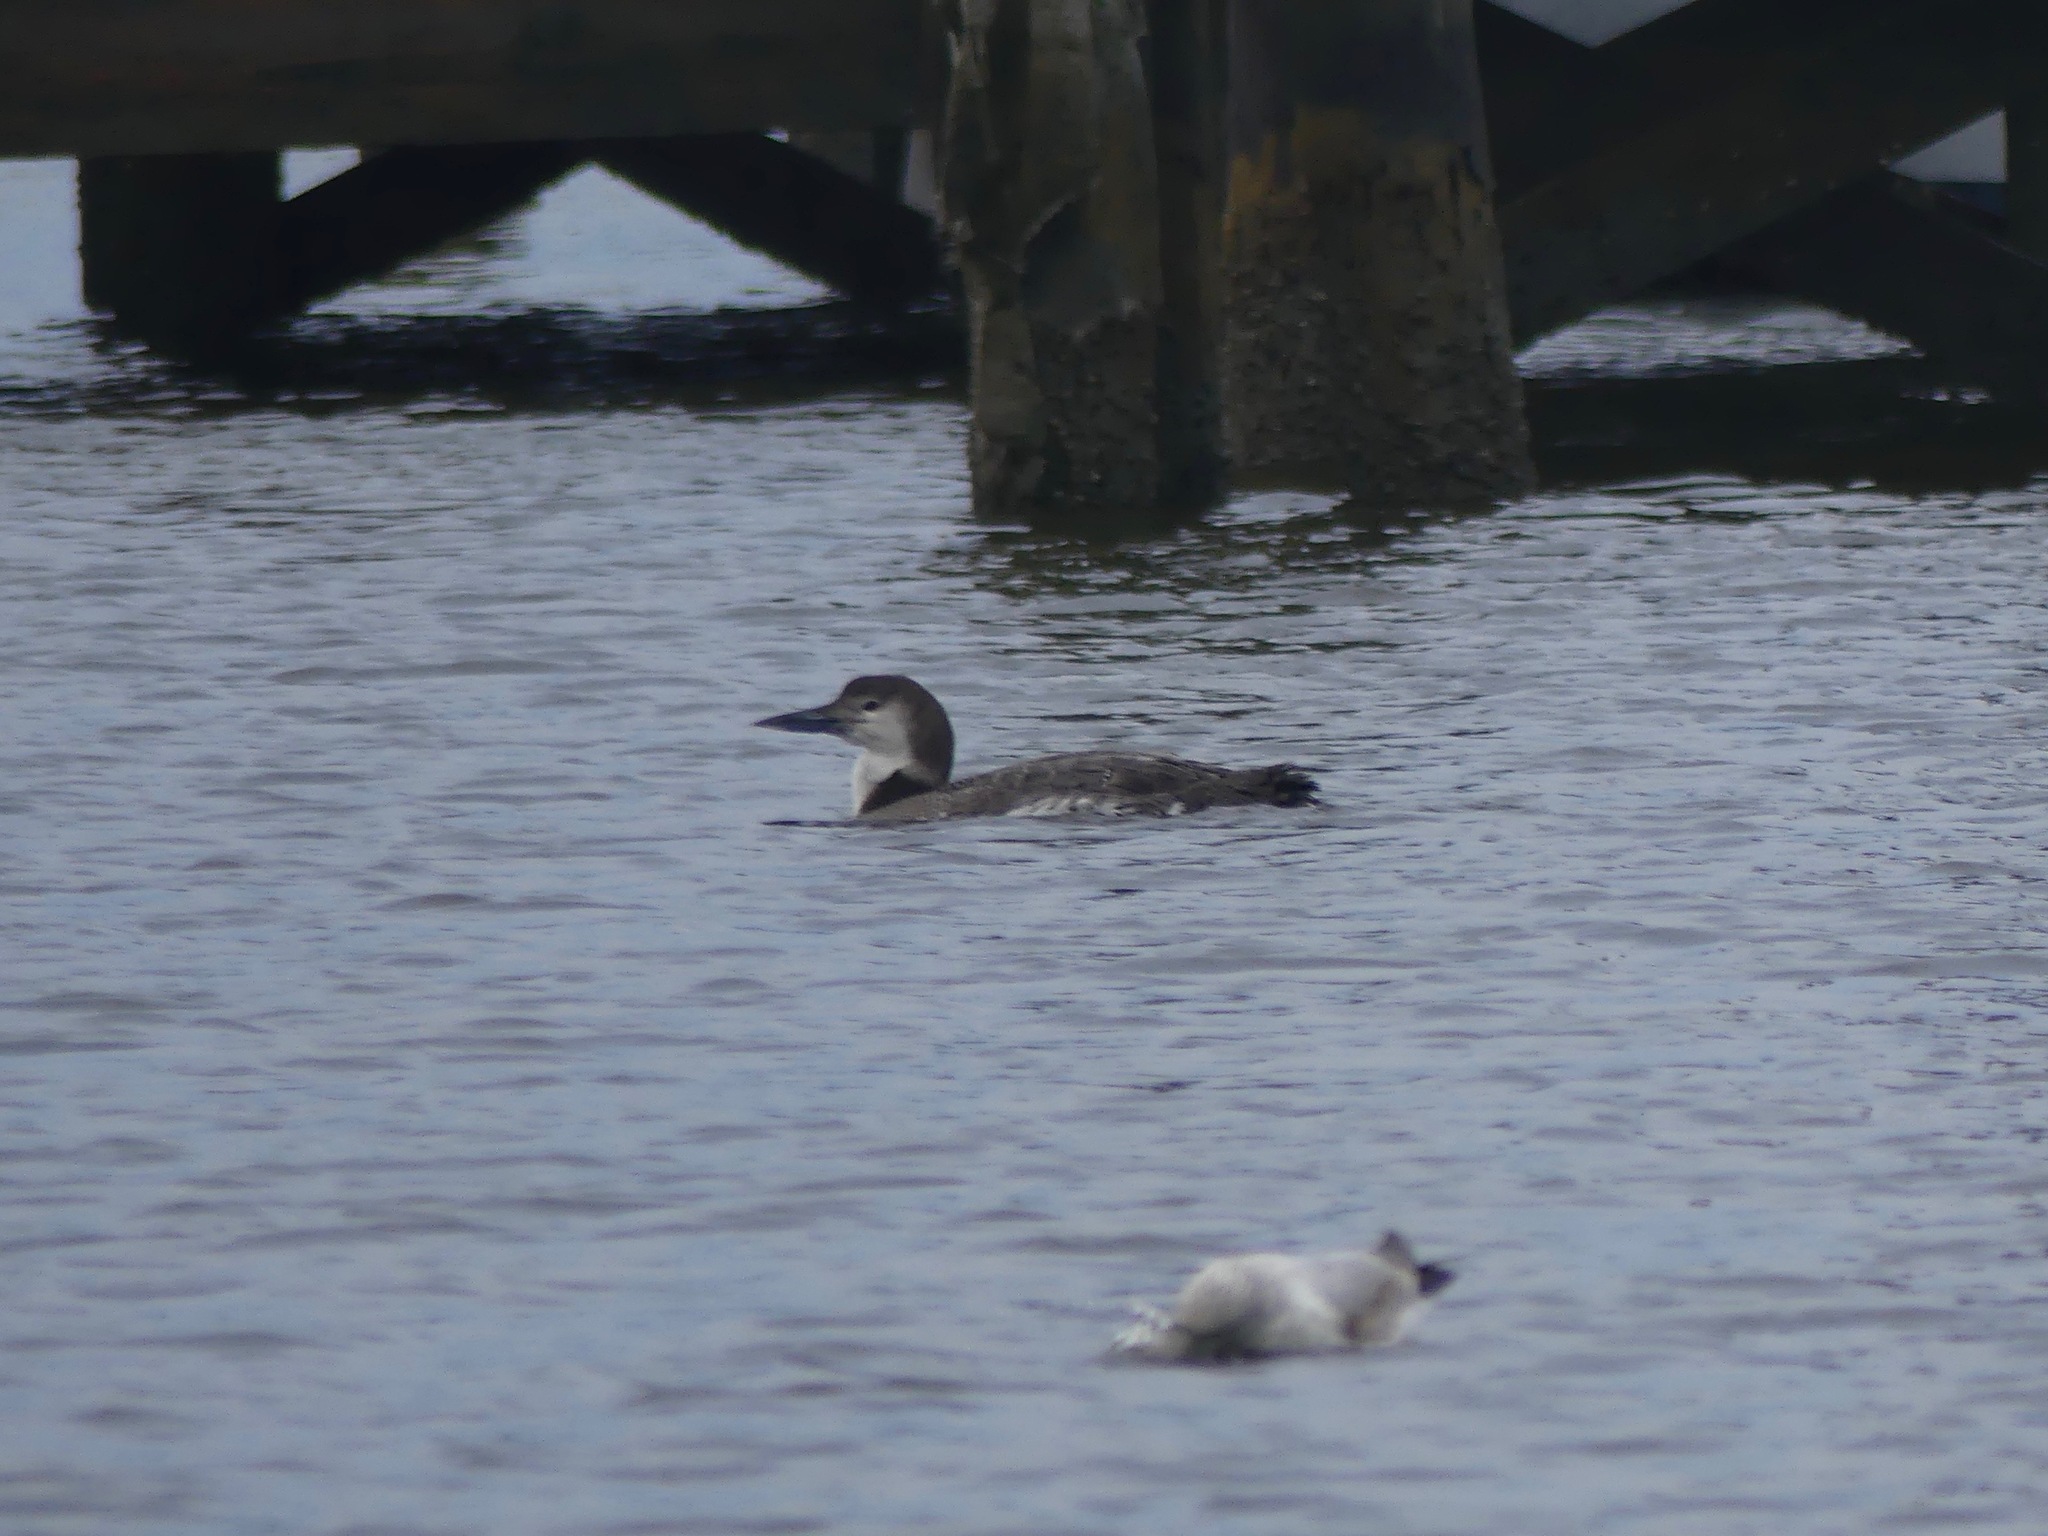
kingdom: Animalia
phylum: Chordata
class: Aves
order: Gaviiformes
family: Gaviidae
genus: Gavia
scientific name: Gavia immer
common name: Common loon
